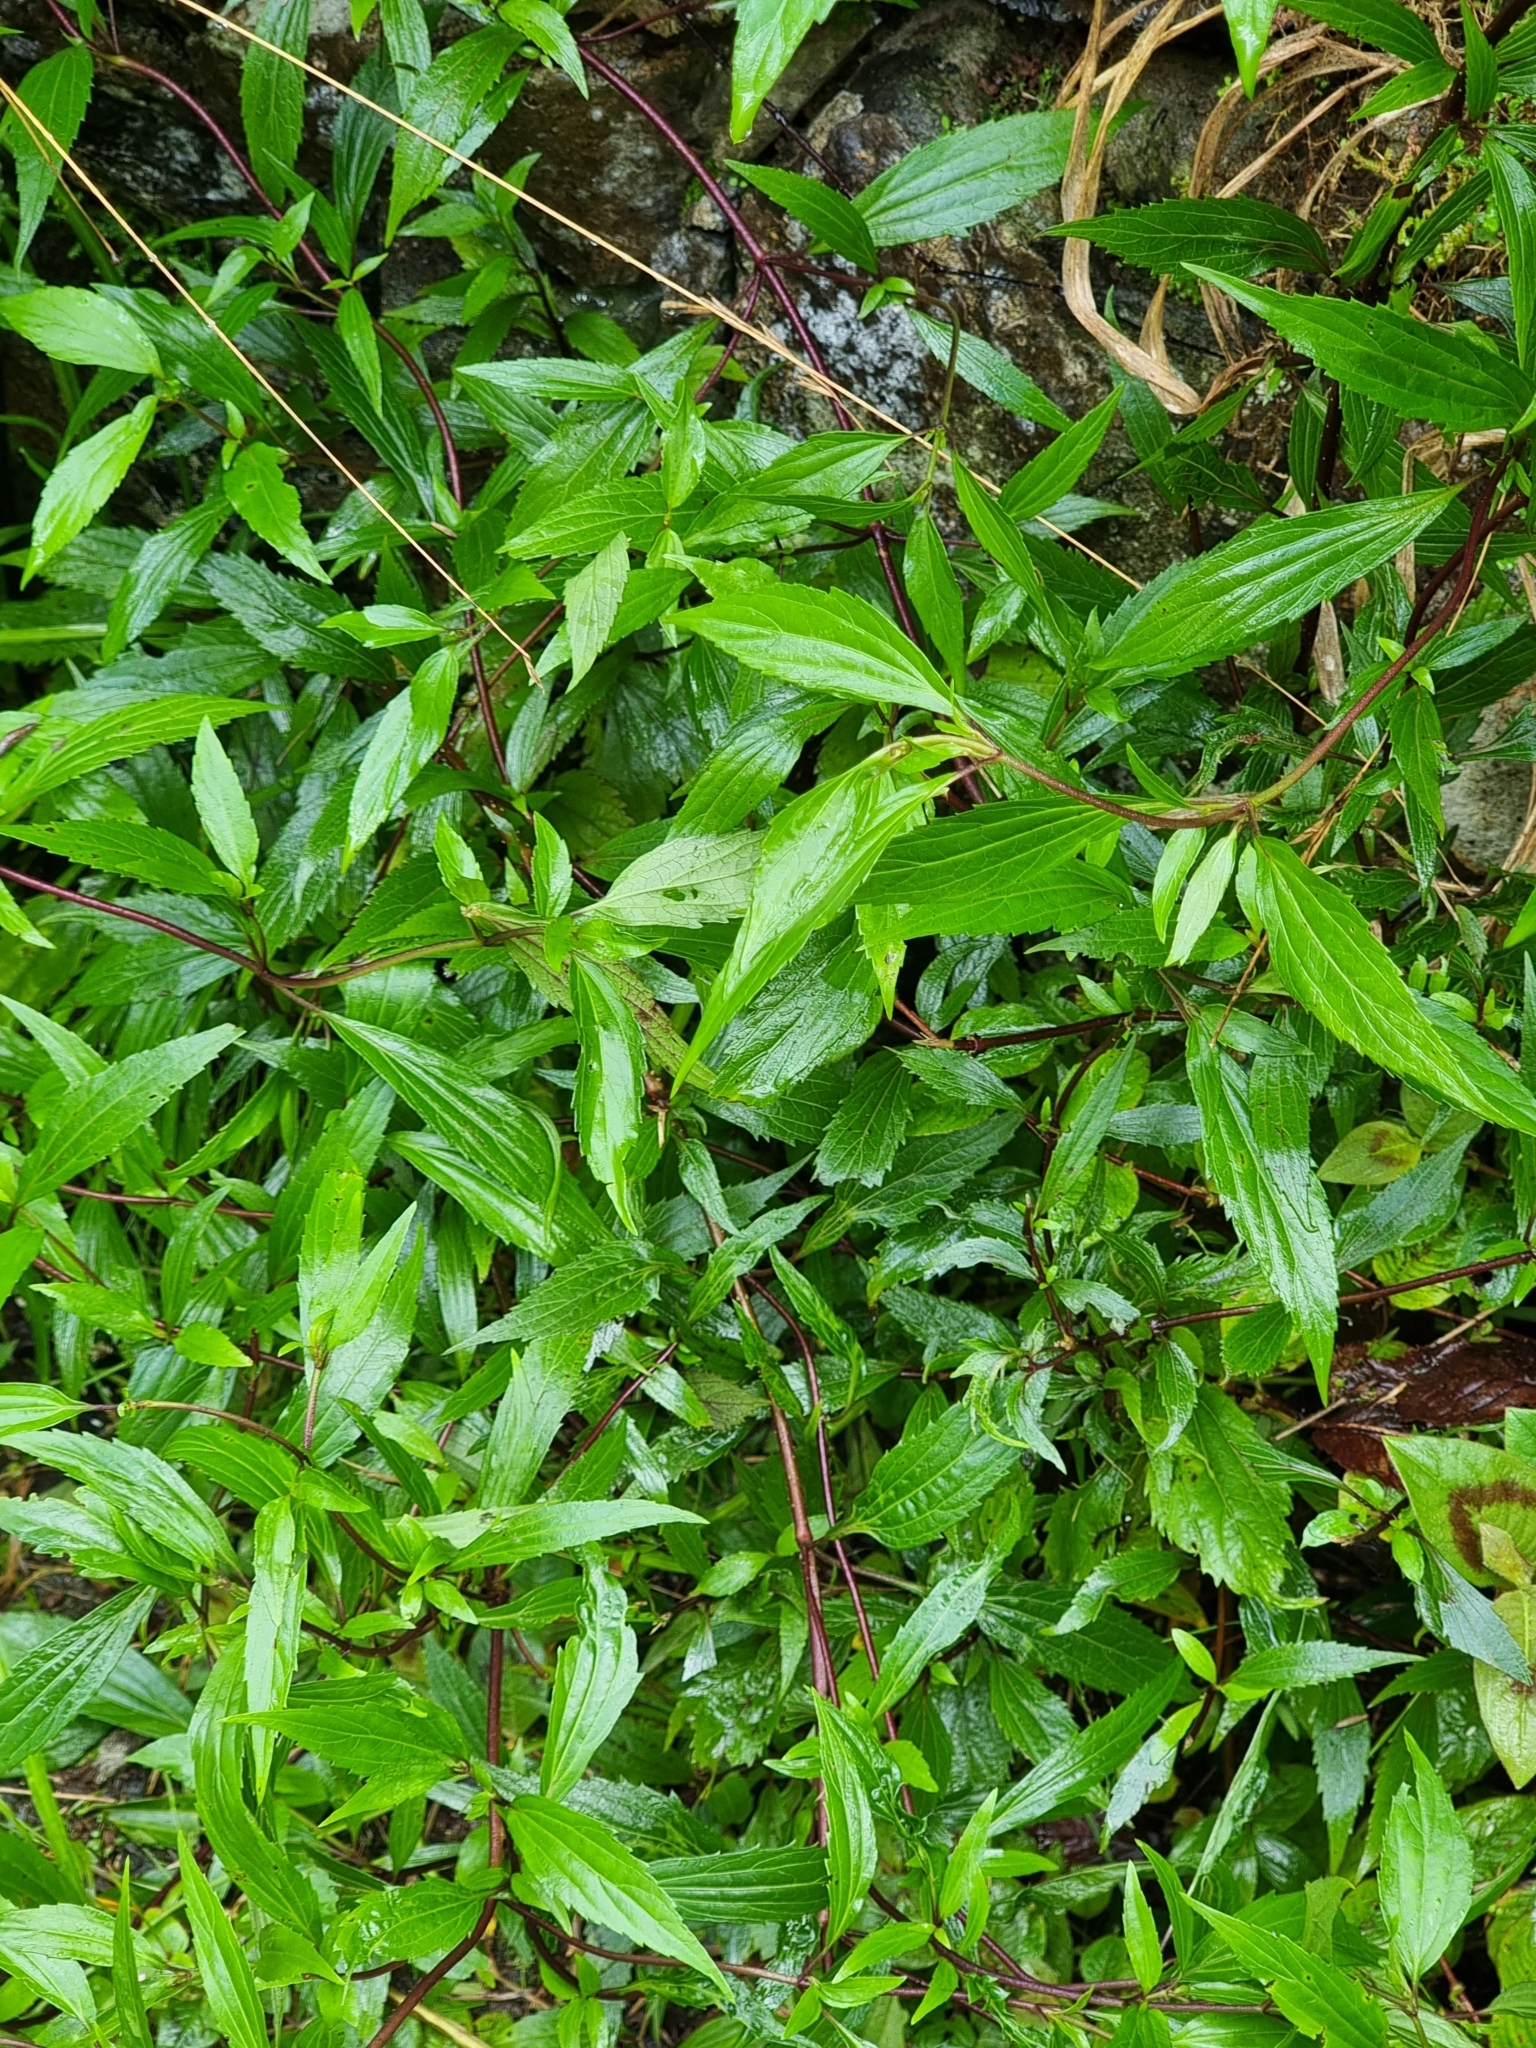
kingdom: Plantae
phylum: Tracheophyta
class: Magnoliopsida
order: Asterales
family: Asteraceae
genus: Ageratina
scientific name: Ageratina riparia
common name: Creeping croftonweed
